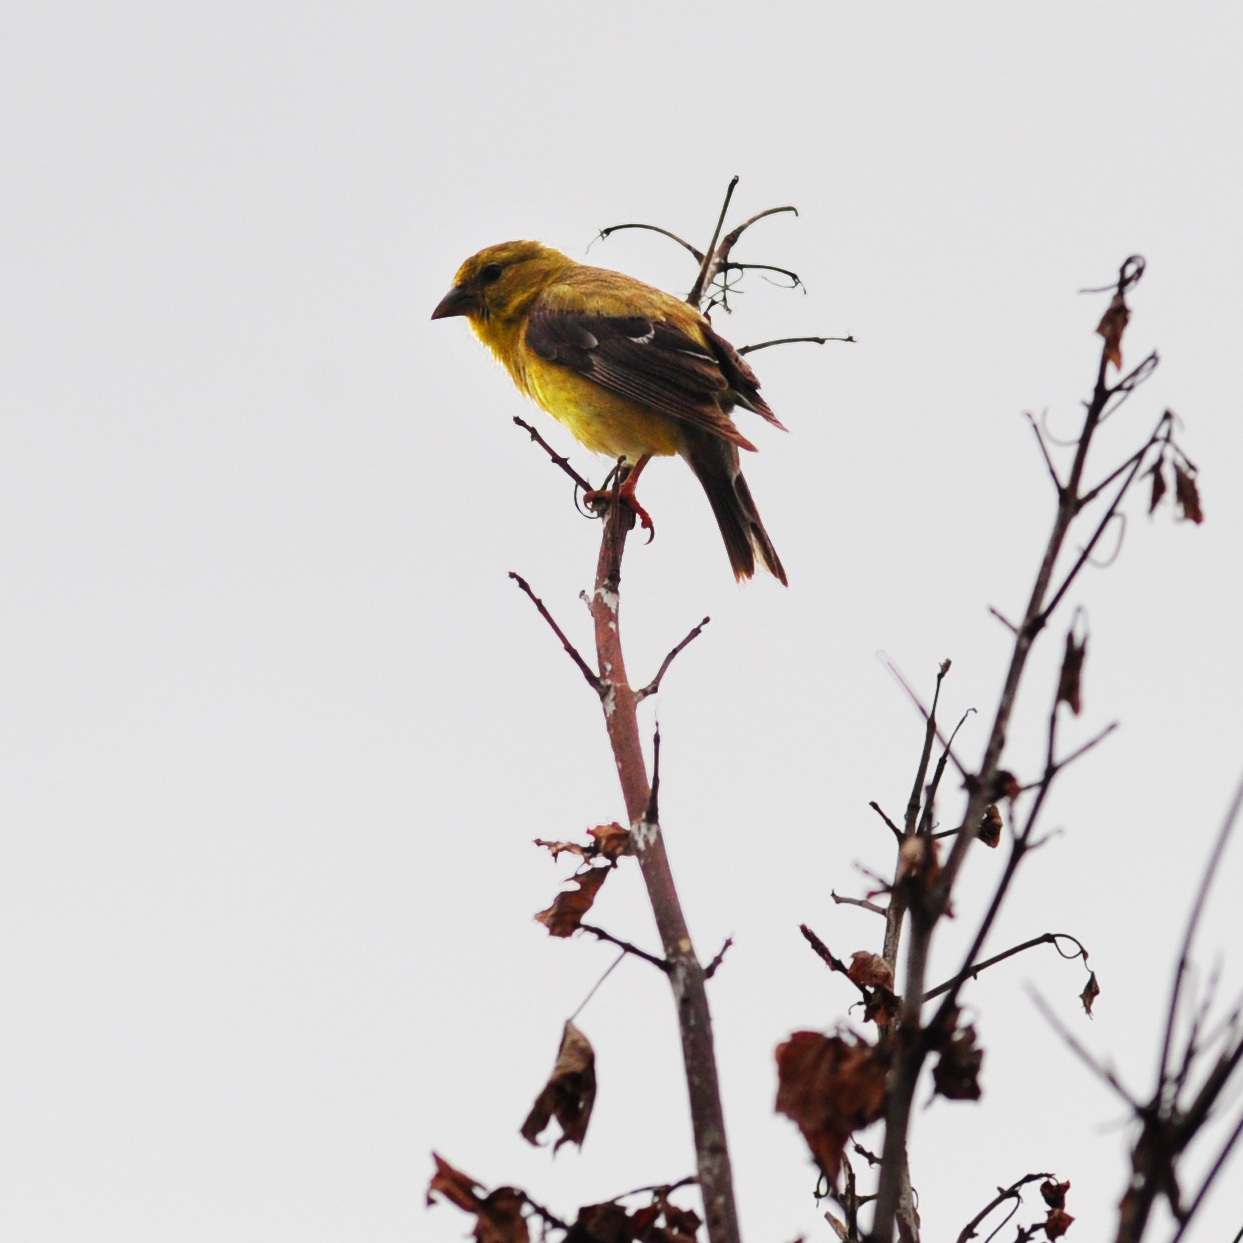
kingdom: Animalia
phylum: Chordata
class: Aves
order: Passeriformes
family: Cardinalidae
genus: Piranga
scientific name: Piranga olivacea
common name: Scarlet tanager
